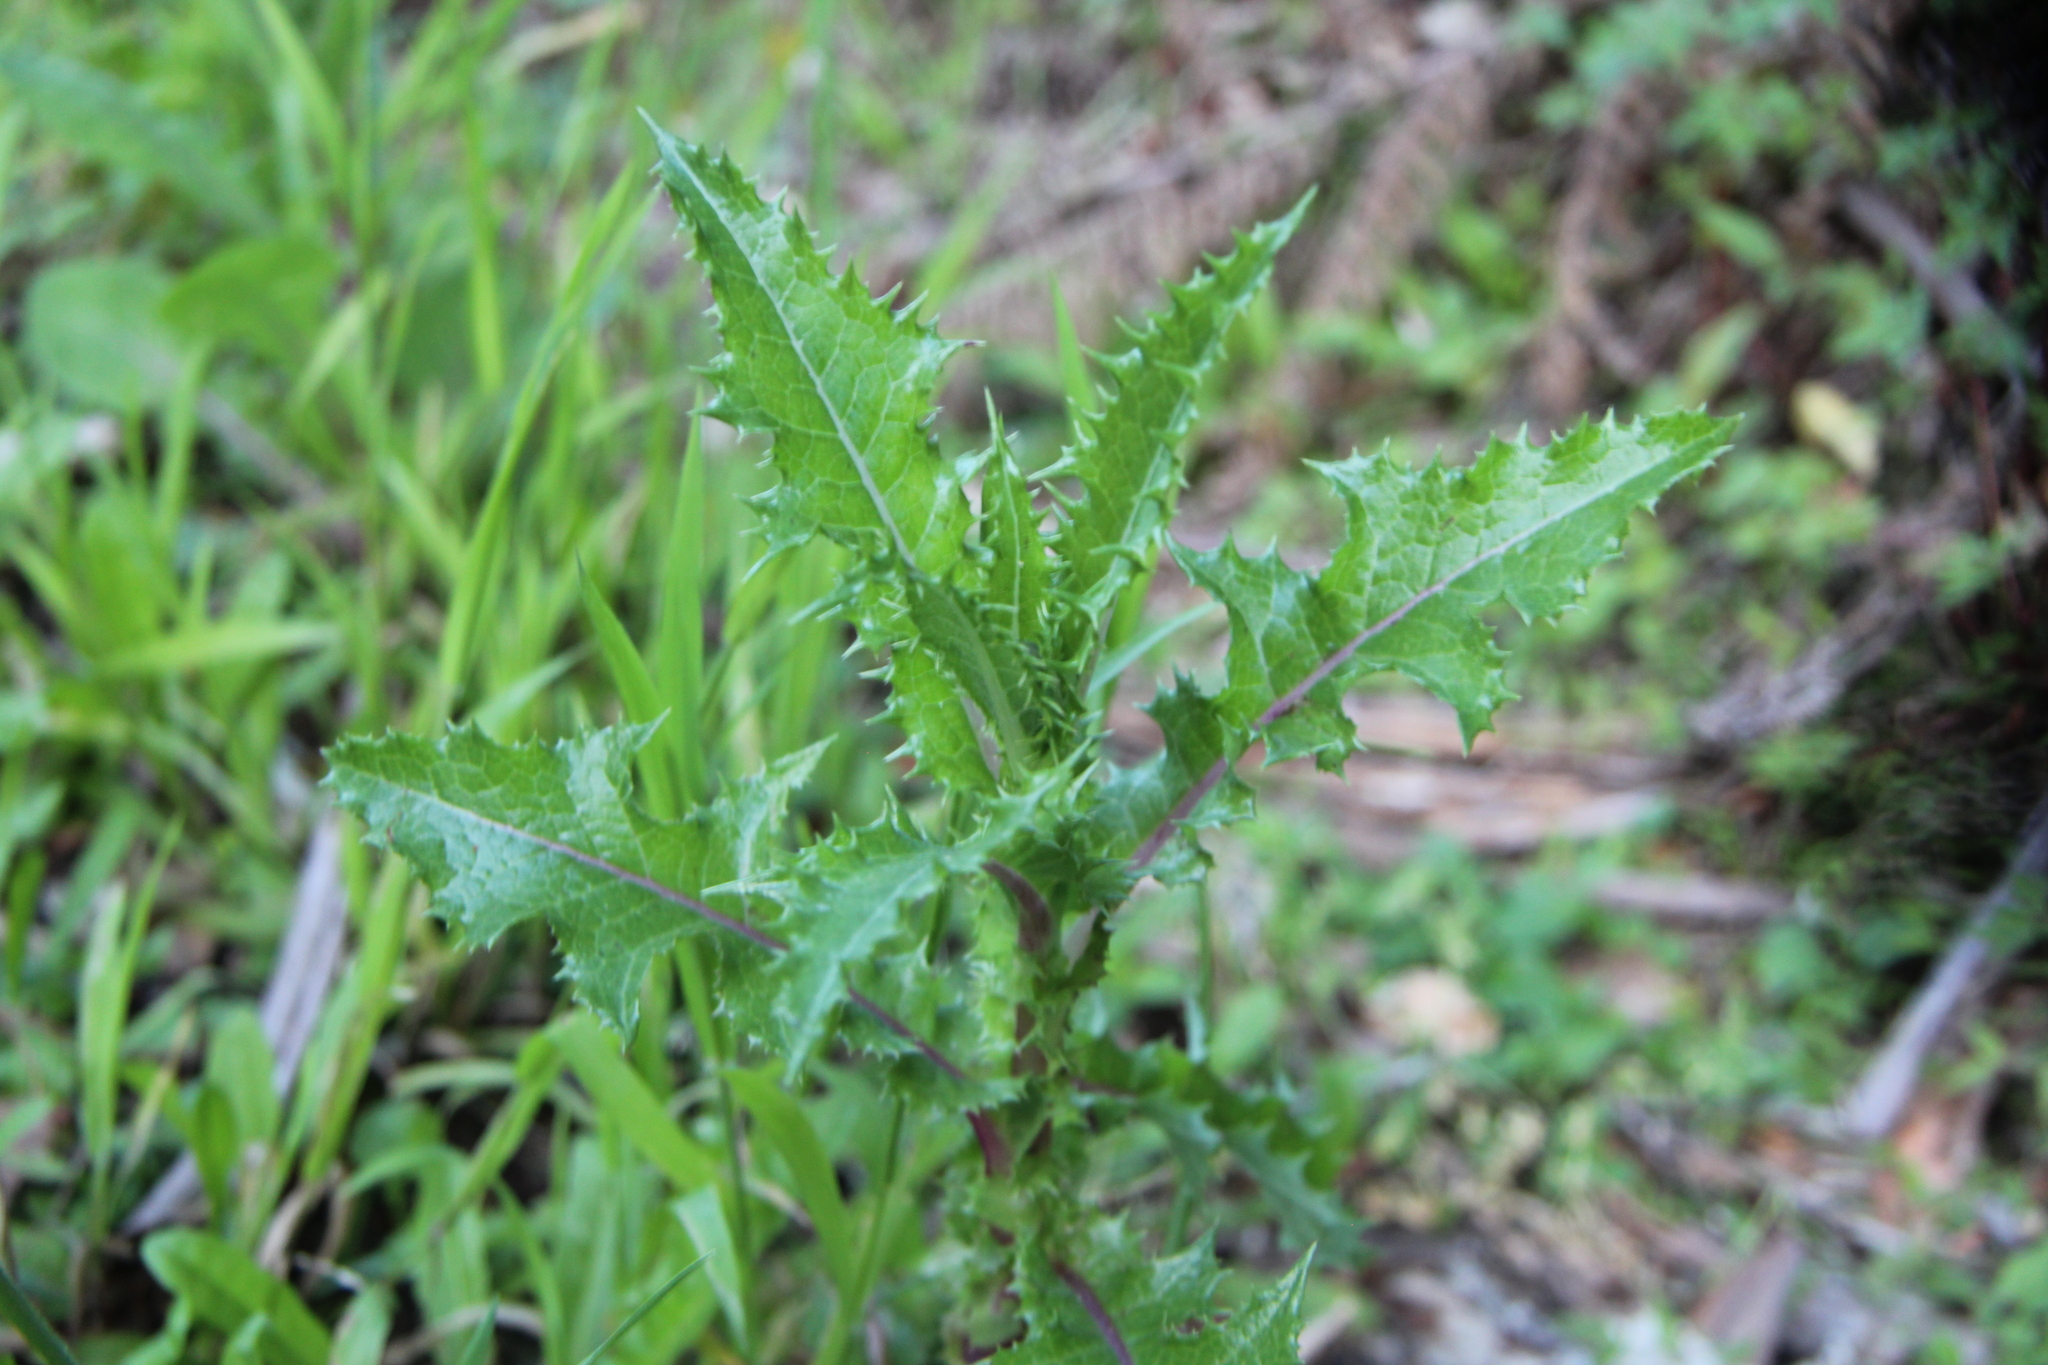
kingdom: Plantae
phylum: Tracheophyta
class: Magnoliopsida
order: Asterales
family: Asteraceae
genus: Sonchus
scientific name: Sonchus asper
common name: Prickly sow-thistle
